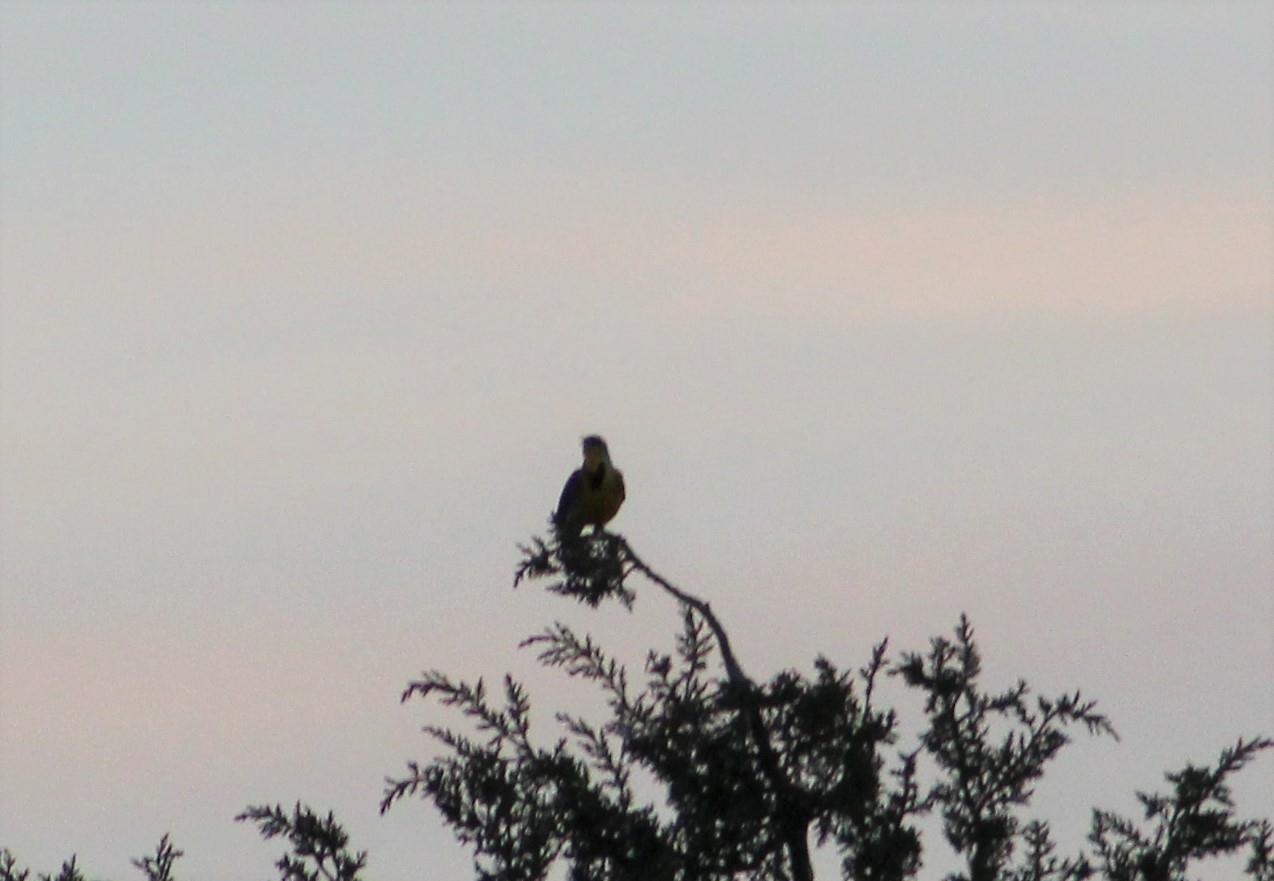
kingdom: Animalia
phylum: Chordata
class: Aves
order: Passeriformes
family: Icteridae
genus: Sturnella
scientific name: Sturnella neglecta
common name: Western meadowlark
